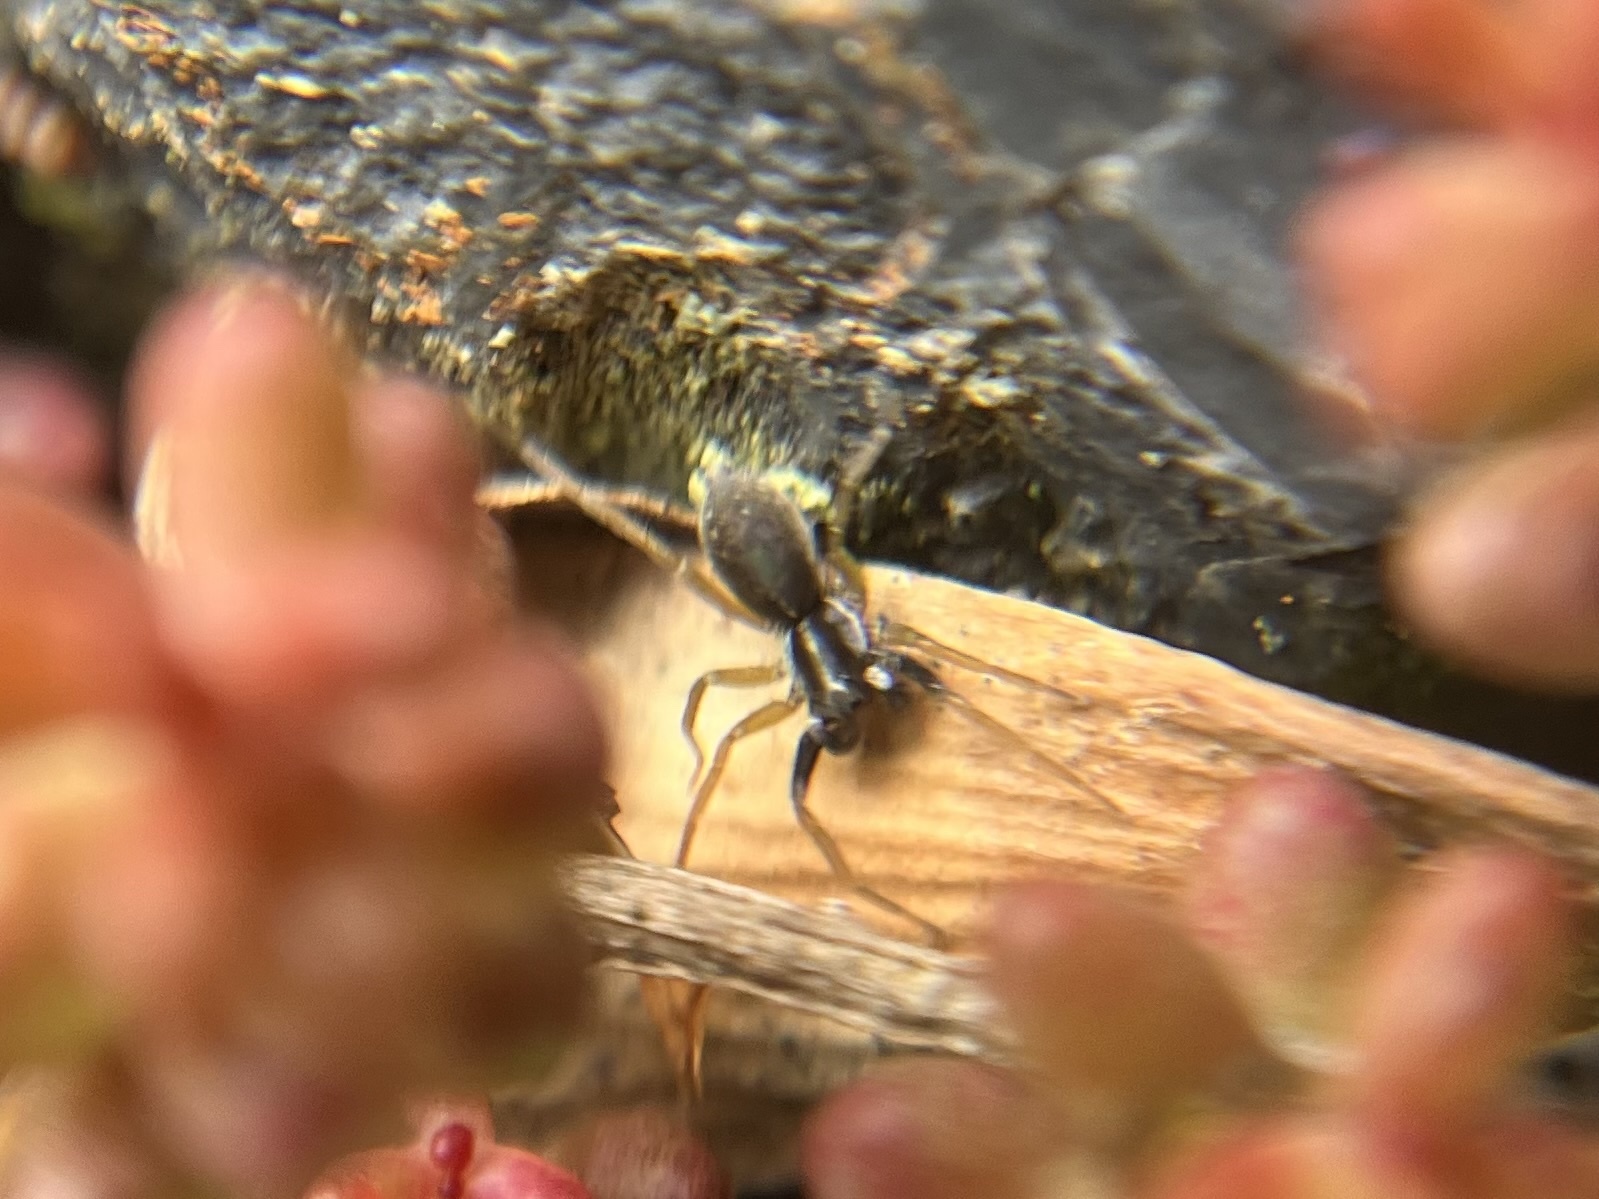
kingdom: Animalia
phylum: Arthropoda
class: Arachnida
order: Araneae
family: Lycosidae
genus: Aulonia
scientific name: Aulonia albimana
